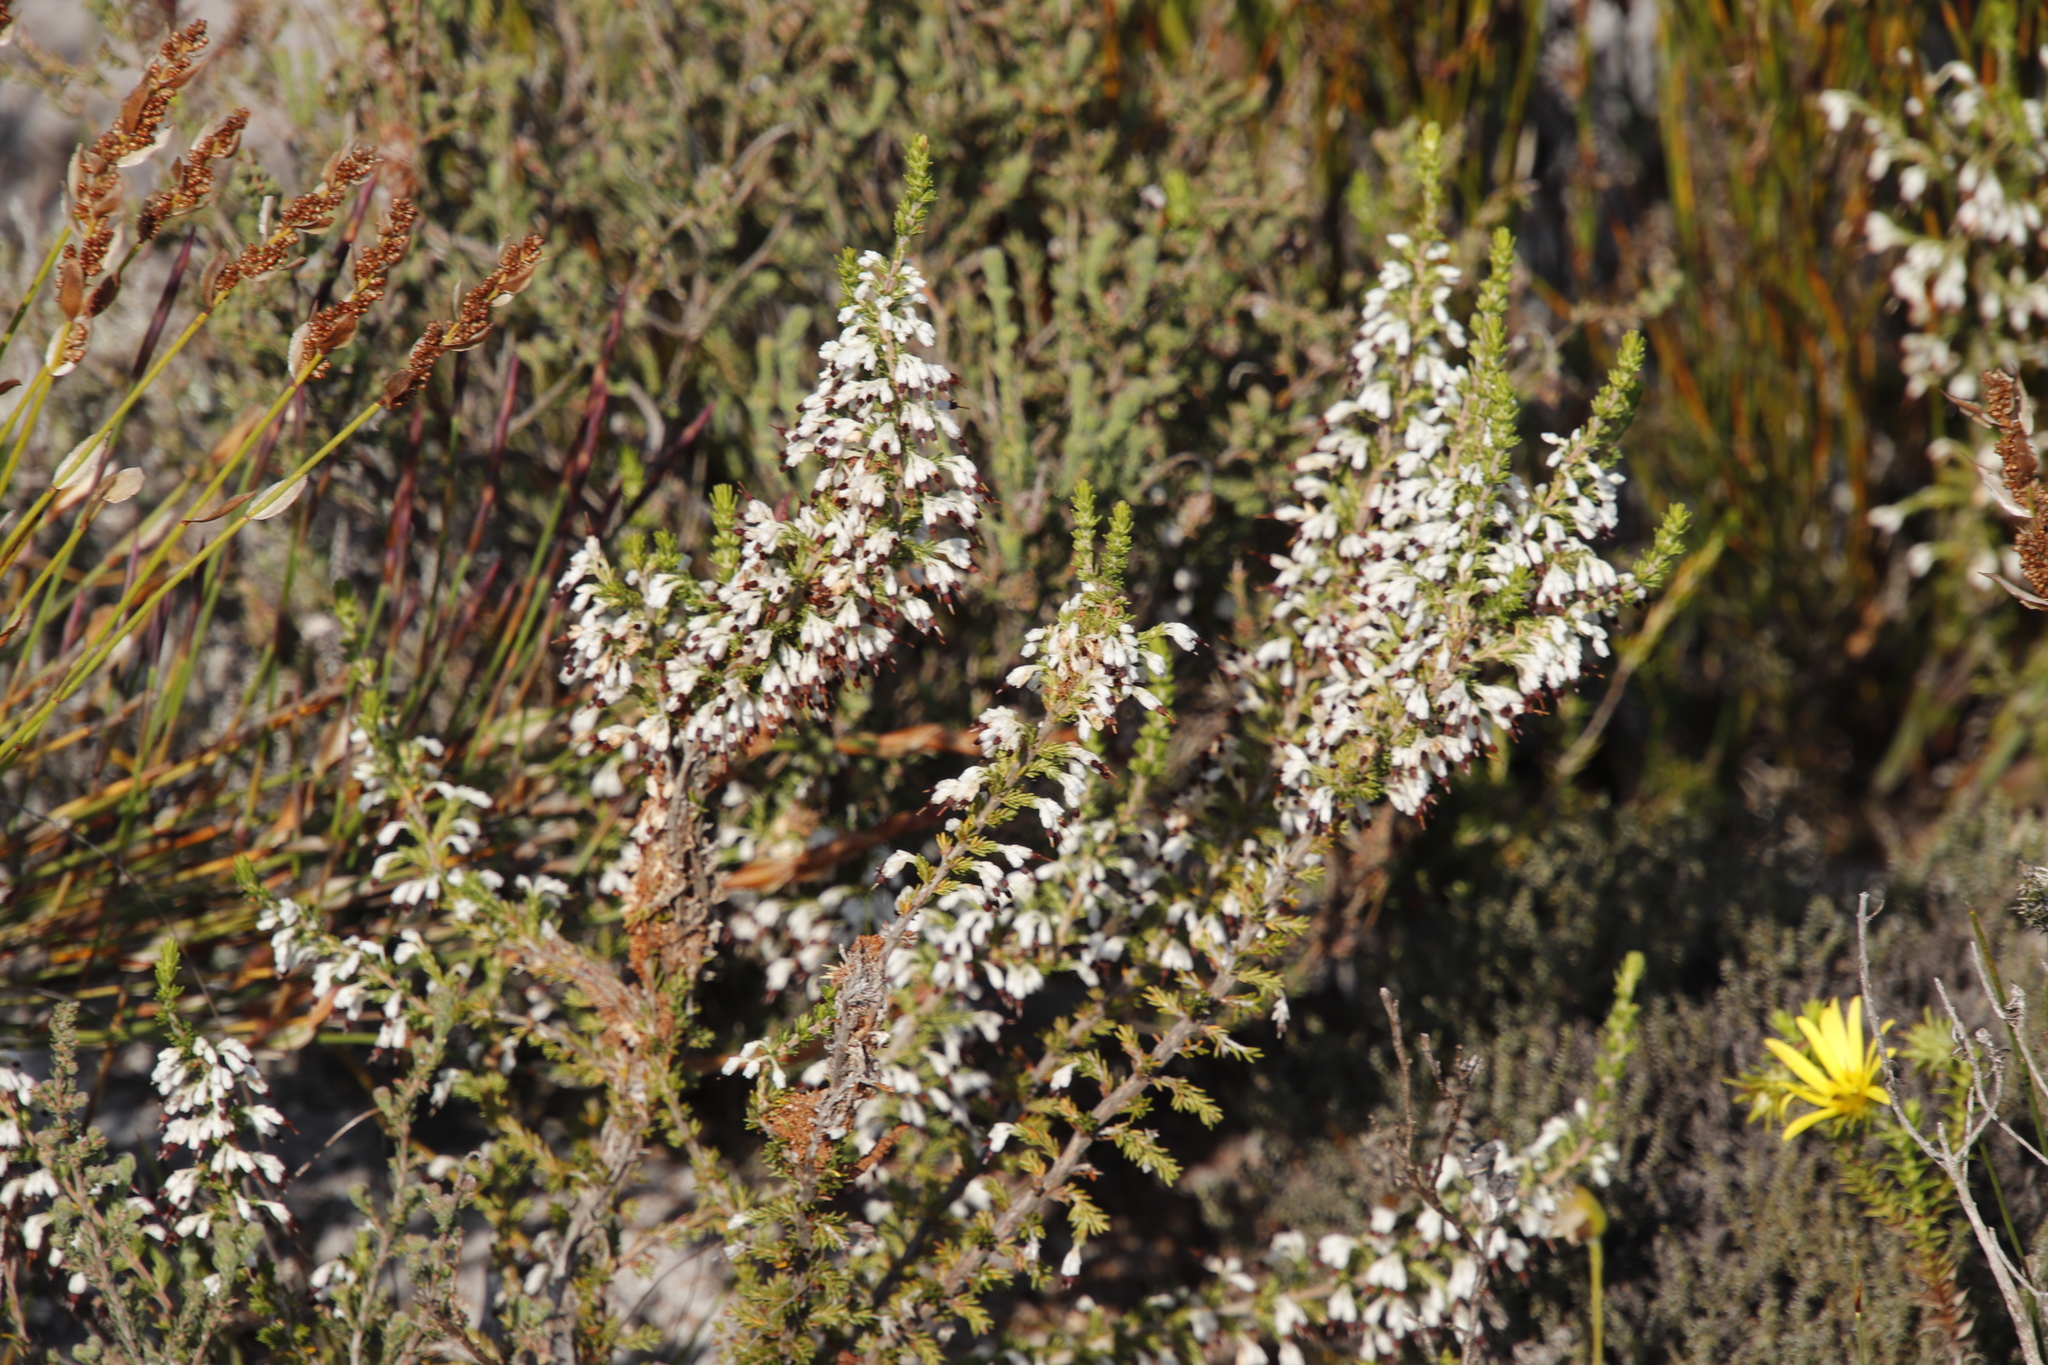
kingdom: Plantae
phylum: Tracheophyta
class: Magnoliopsida
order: Ericales
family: Ericaceae
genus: Erica
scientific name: Erica imbricata
